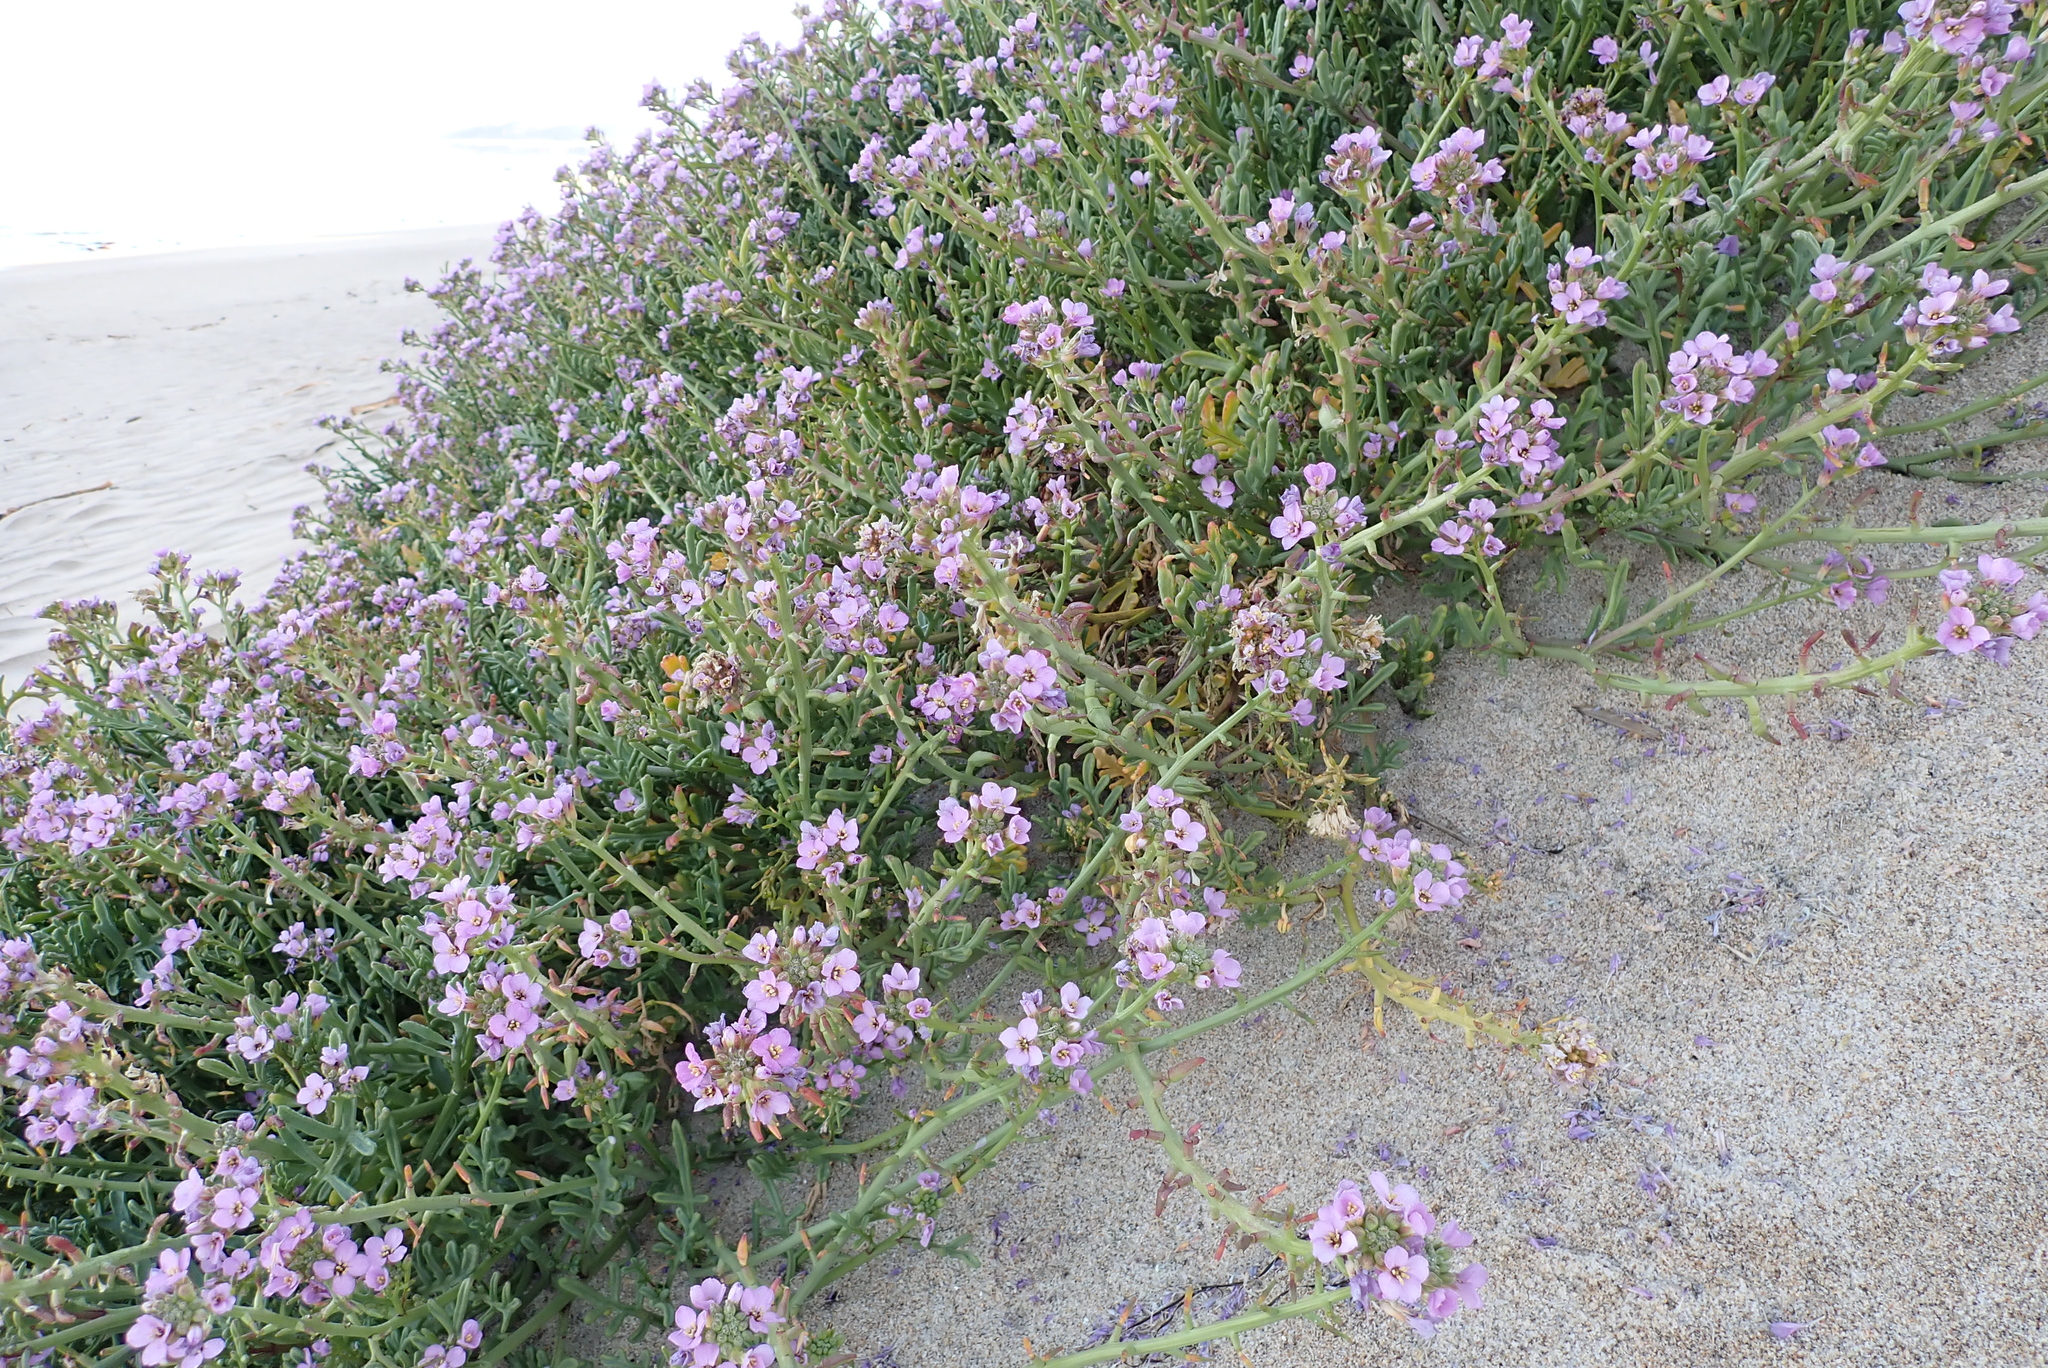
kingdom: Plantae
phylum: Tracheophyta
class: Magnoliopsida
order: Brassicales
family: Brassicaceae
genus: Cakile
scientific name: Cakile maritima
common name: Sea rocket
